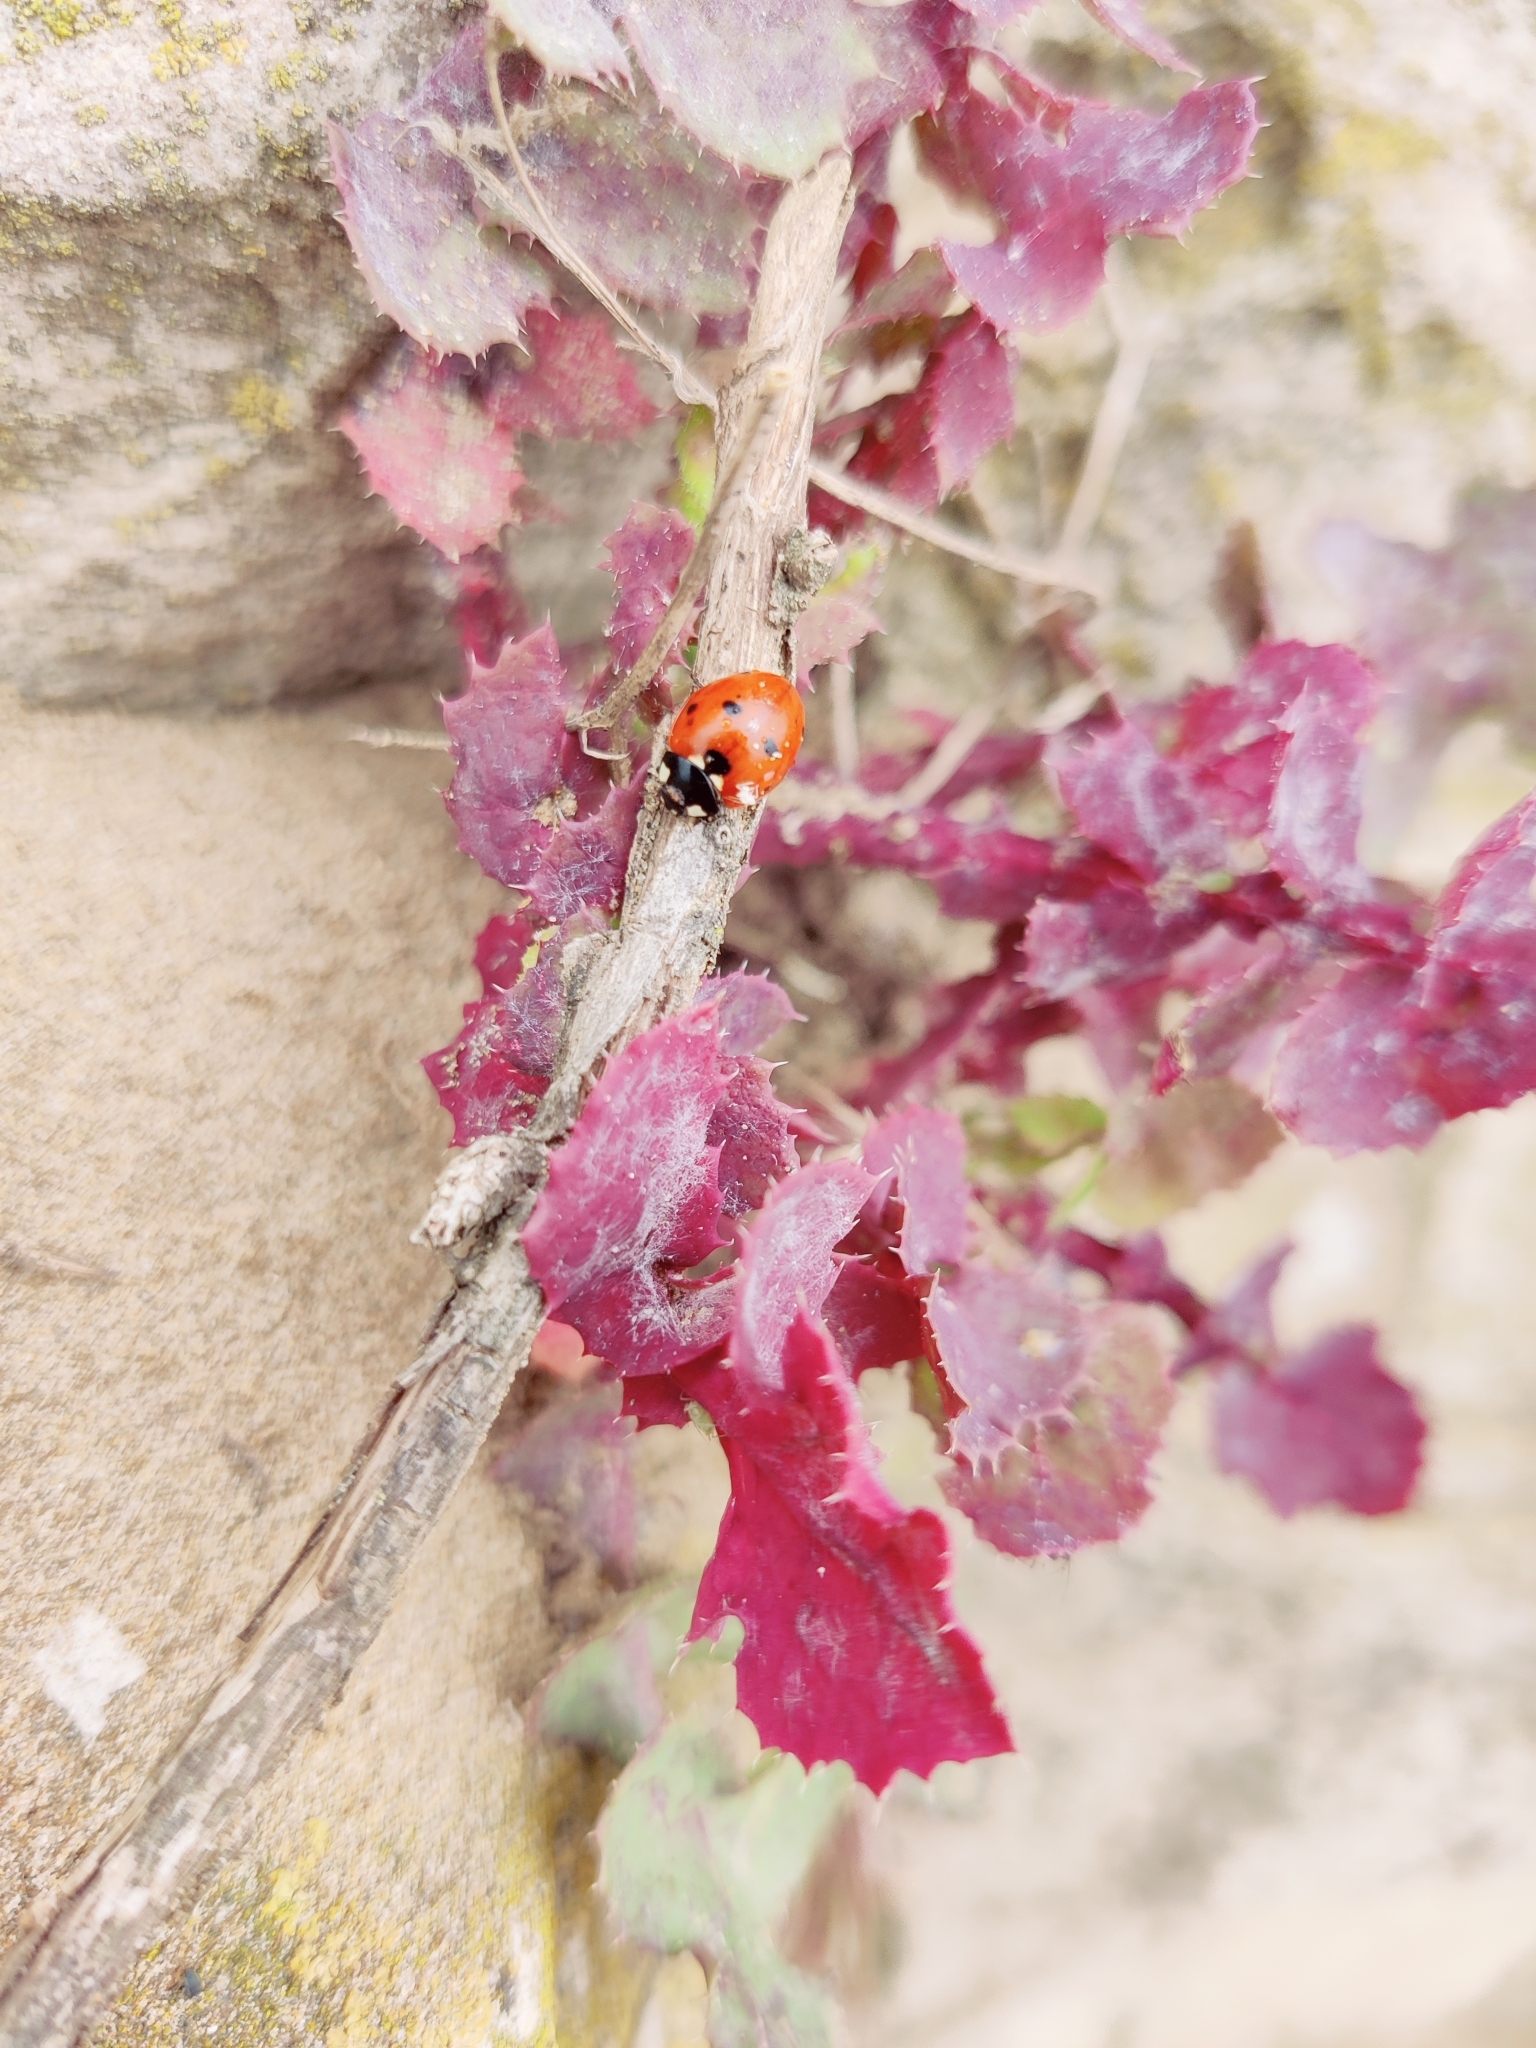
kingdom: Animalia
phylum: Arthropoda
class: Insecta
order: Coleoptera
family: Coccinellidae
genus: Coccinella
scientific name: Coccinella septempunctata
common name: Sevenspotted lady beetle
